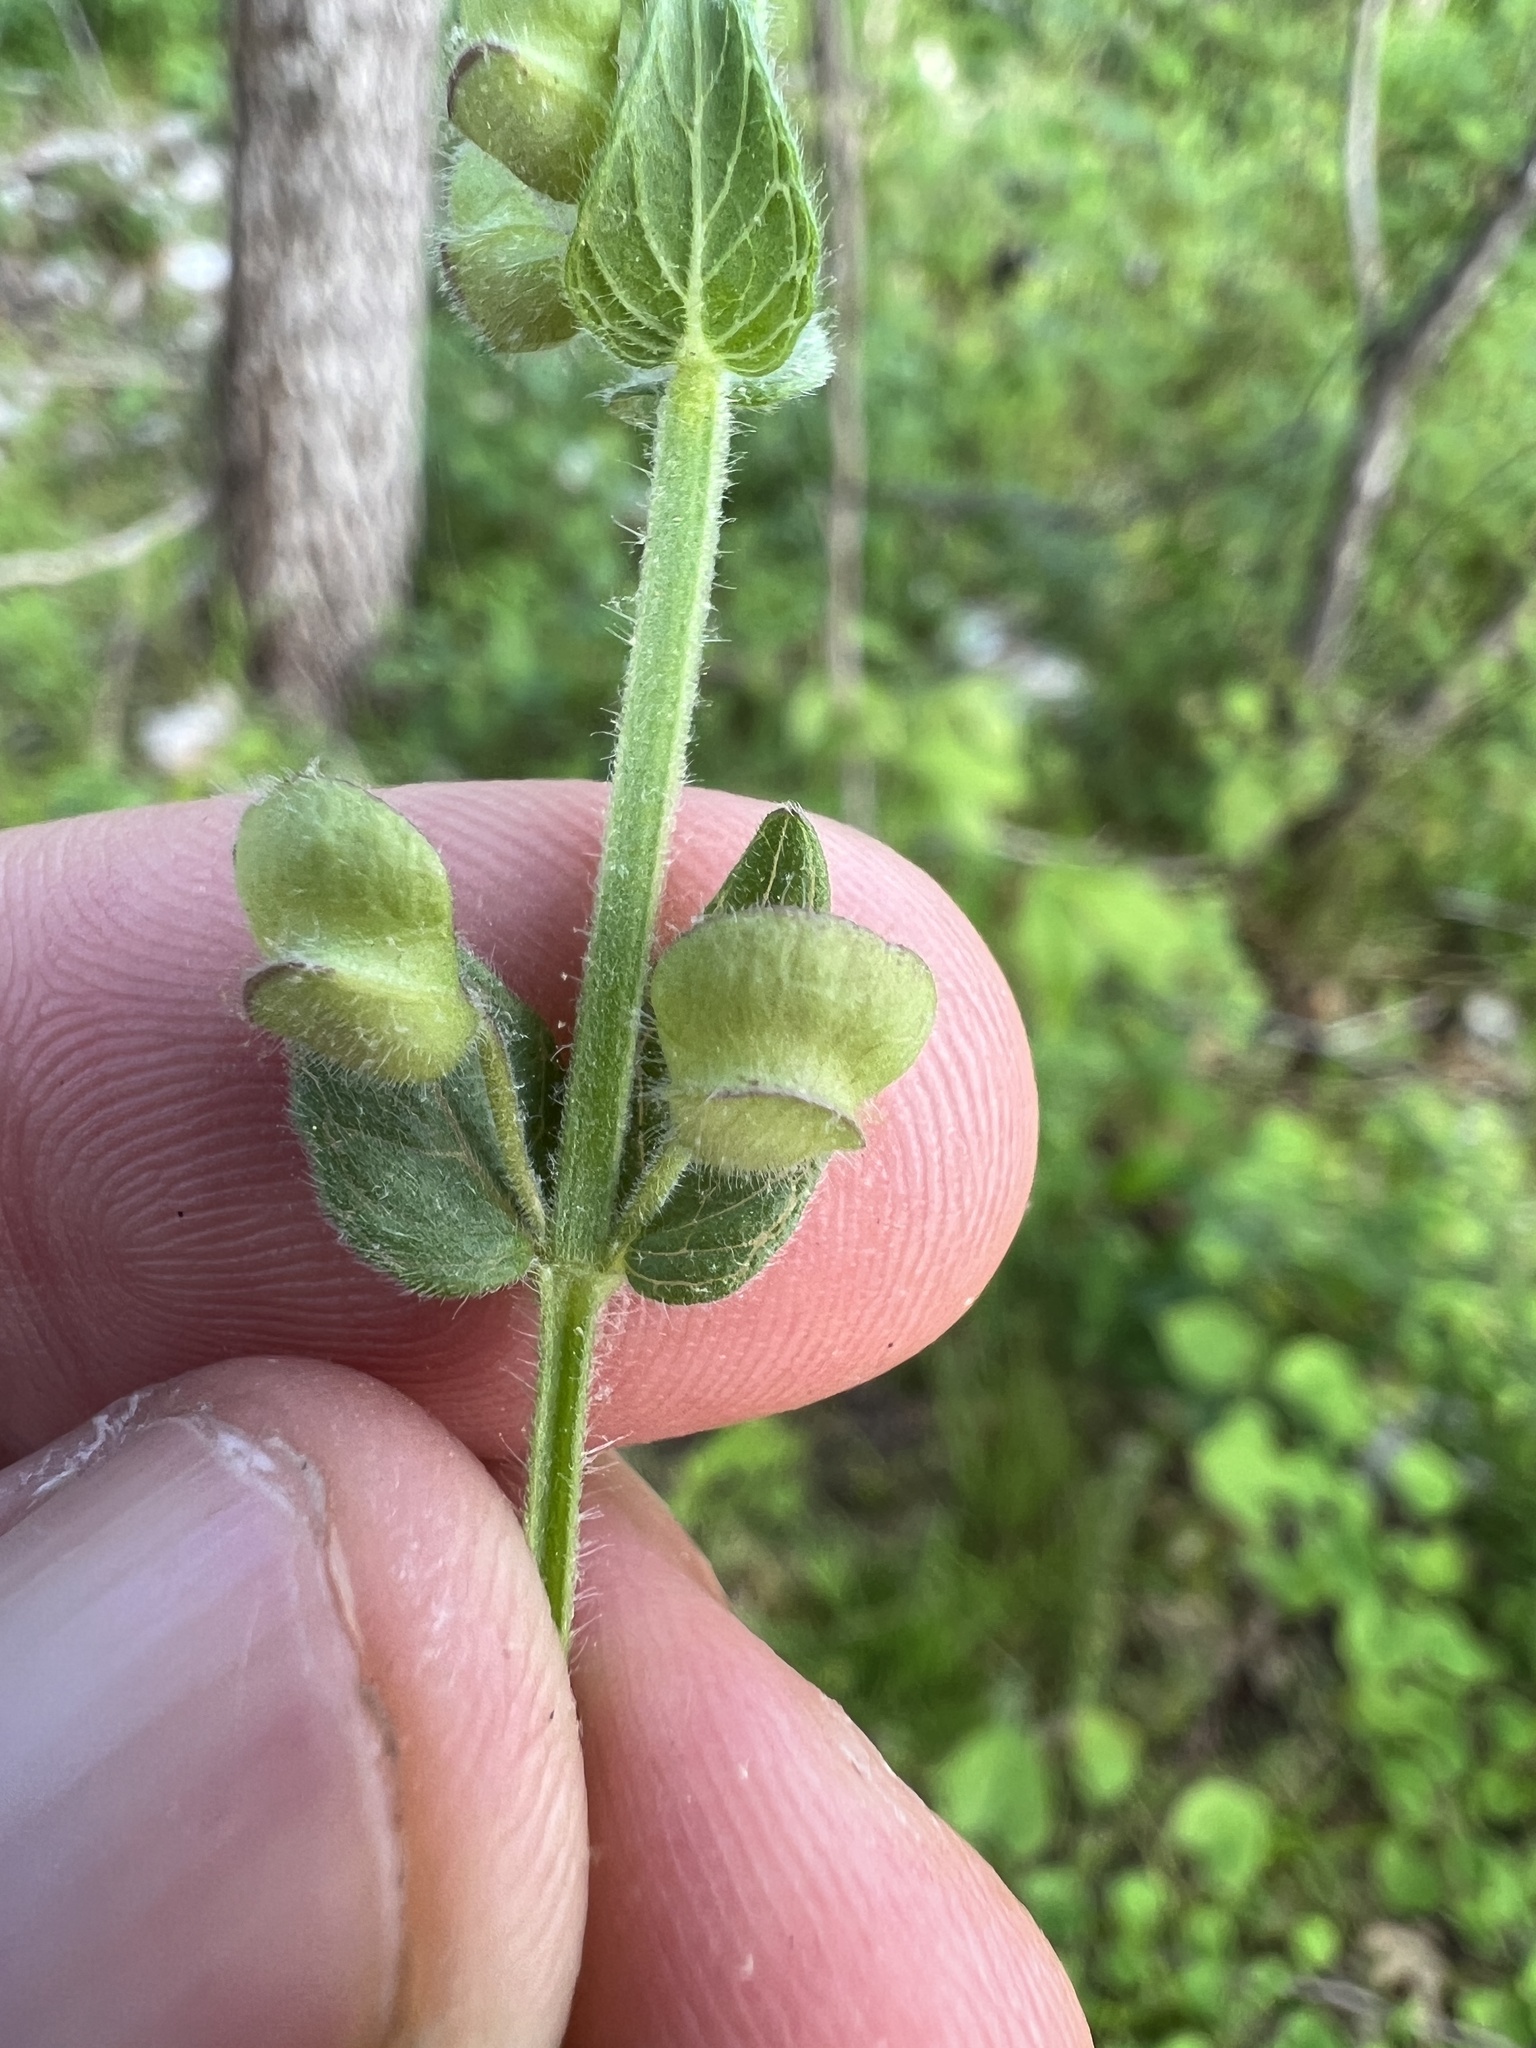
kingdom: Plantae
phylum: Tracheophyta
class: Magnoliopsida
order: Lamiales
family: Lamiaceae
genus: Scutellaria
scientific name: Scutellaria parvula
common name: Little scullcap
